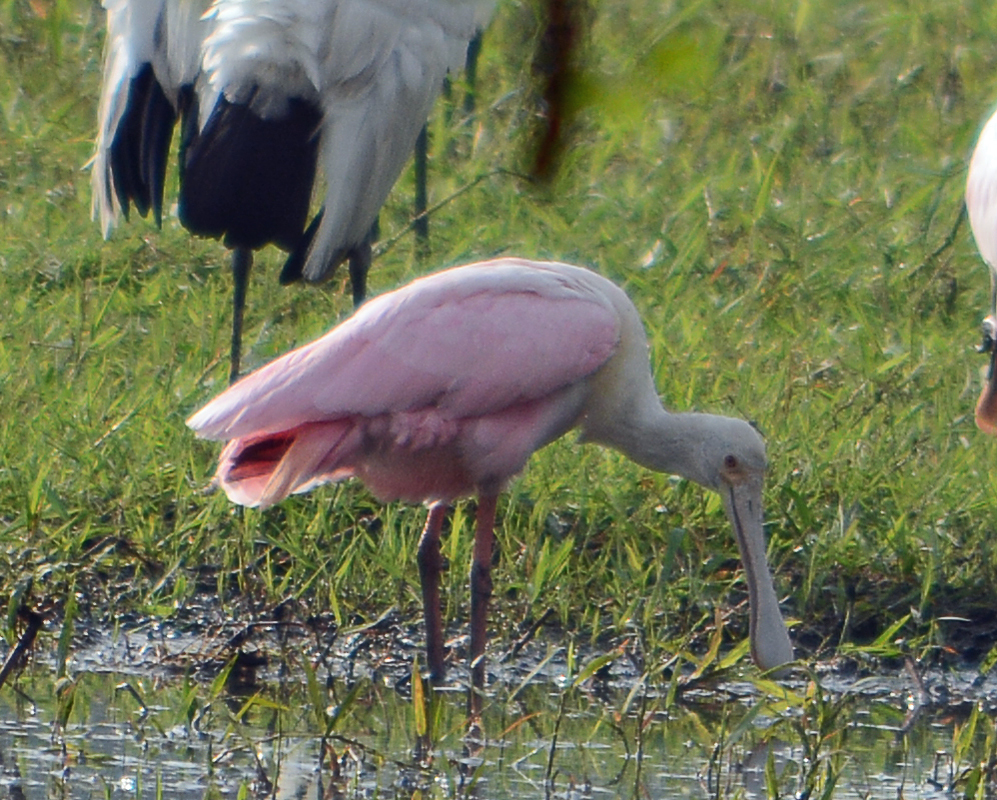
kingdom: Animalia
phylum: Chordata
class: Aves
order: Pelecaniformes
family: Threskiornithidae
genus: Platalea
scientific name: Platalea ajaja
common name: Roseate spoonbill
